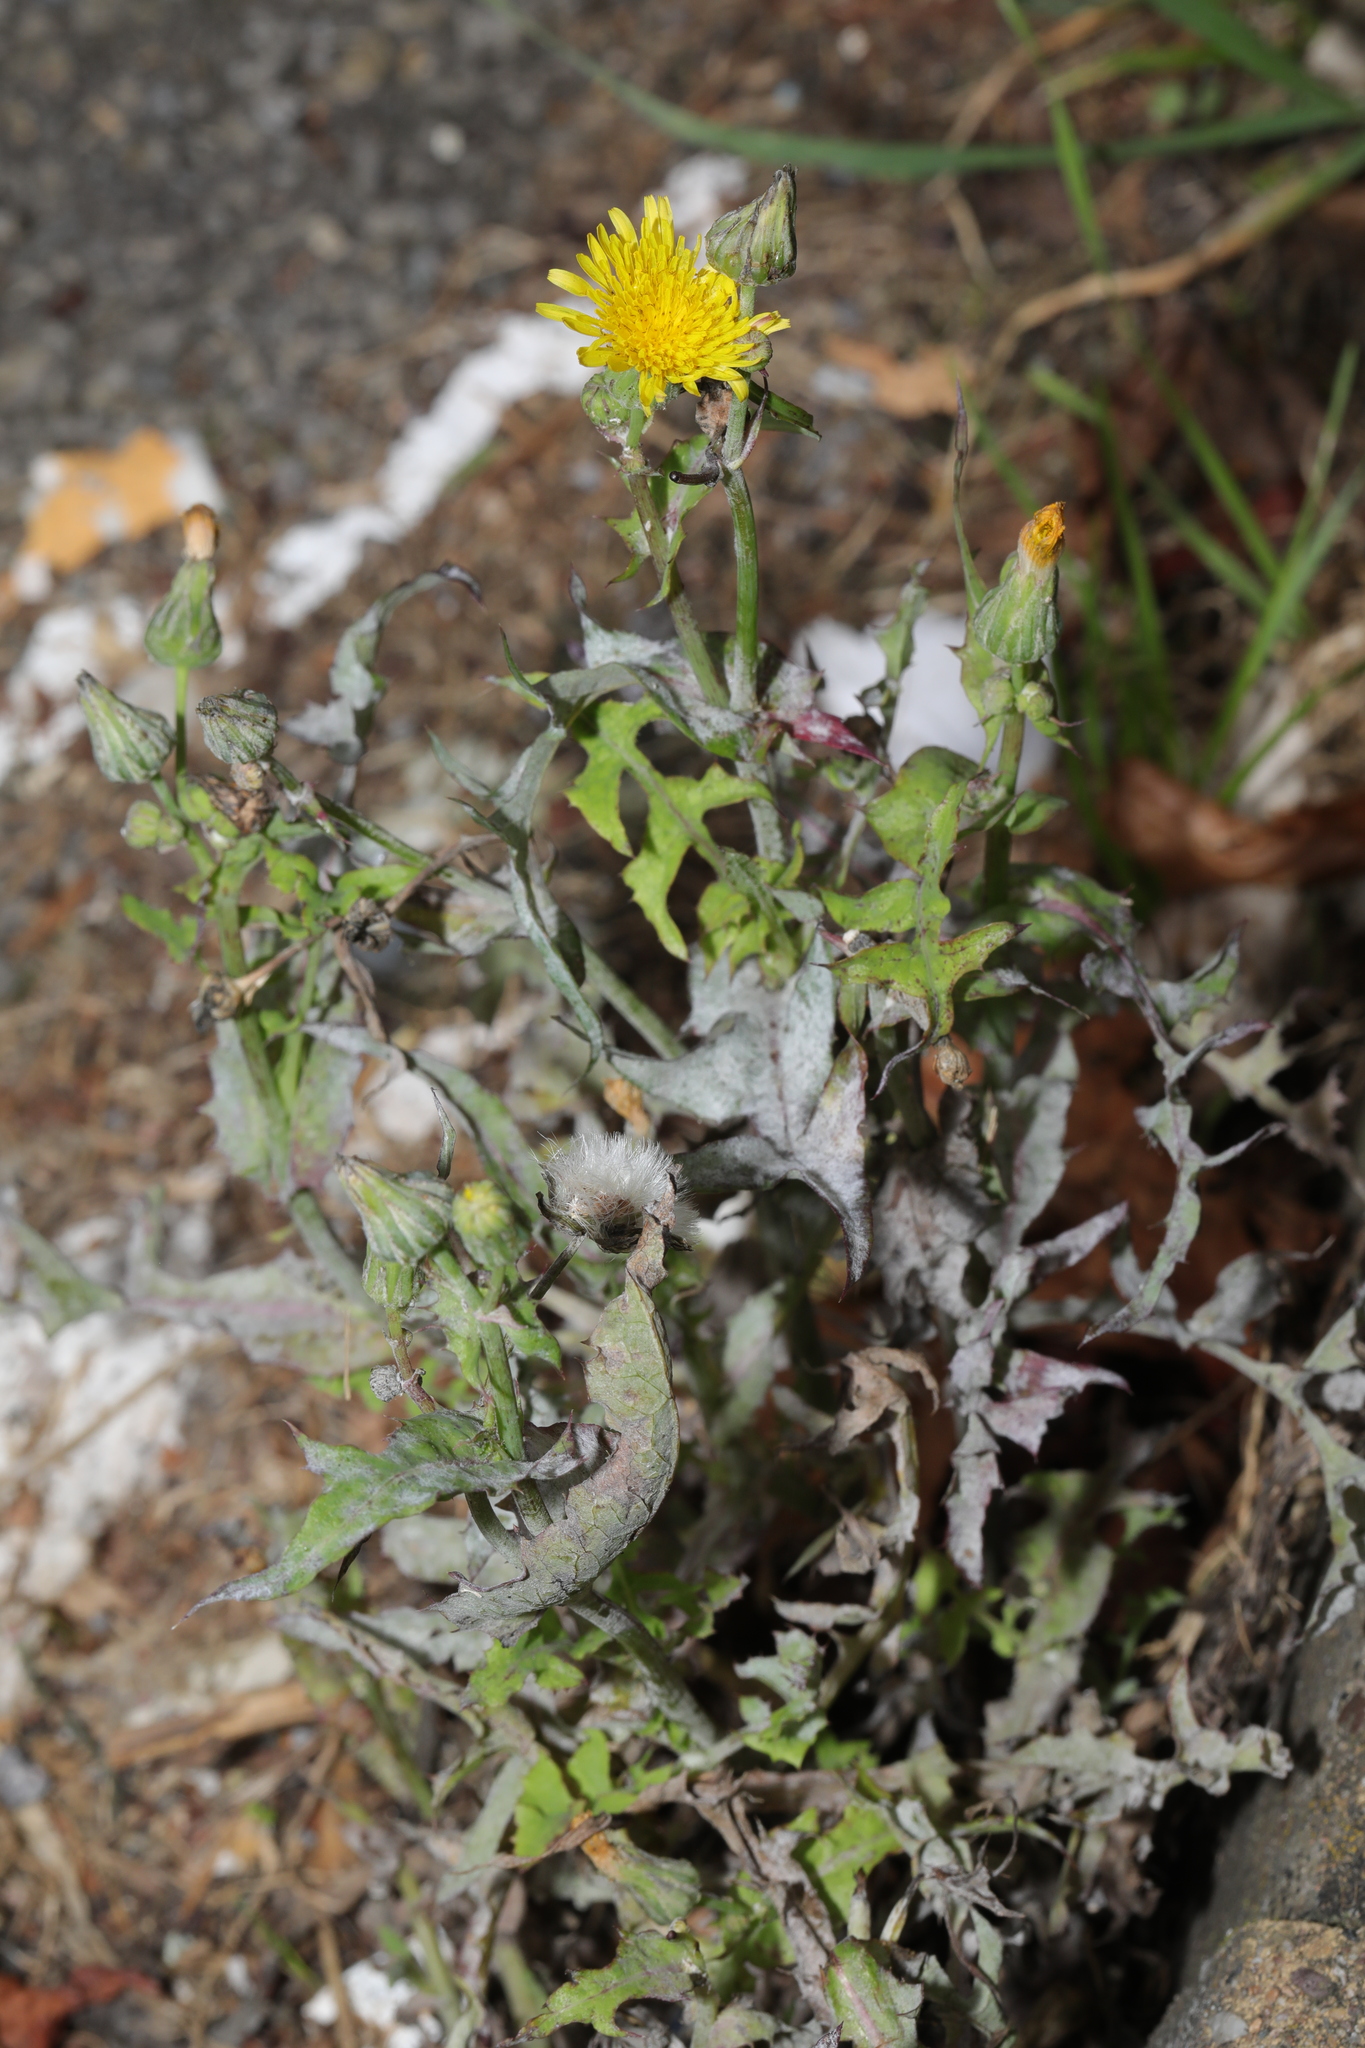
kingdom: Plantae
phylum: Tracheophyta
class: Magnoliopsida
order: Asterales
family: Asteraceae
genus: Sonchus
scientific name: Sonchus oleraceus
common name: Common sowthistle
